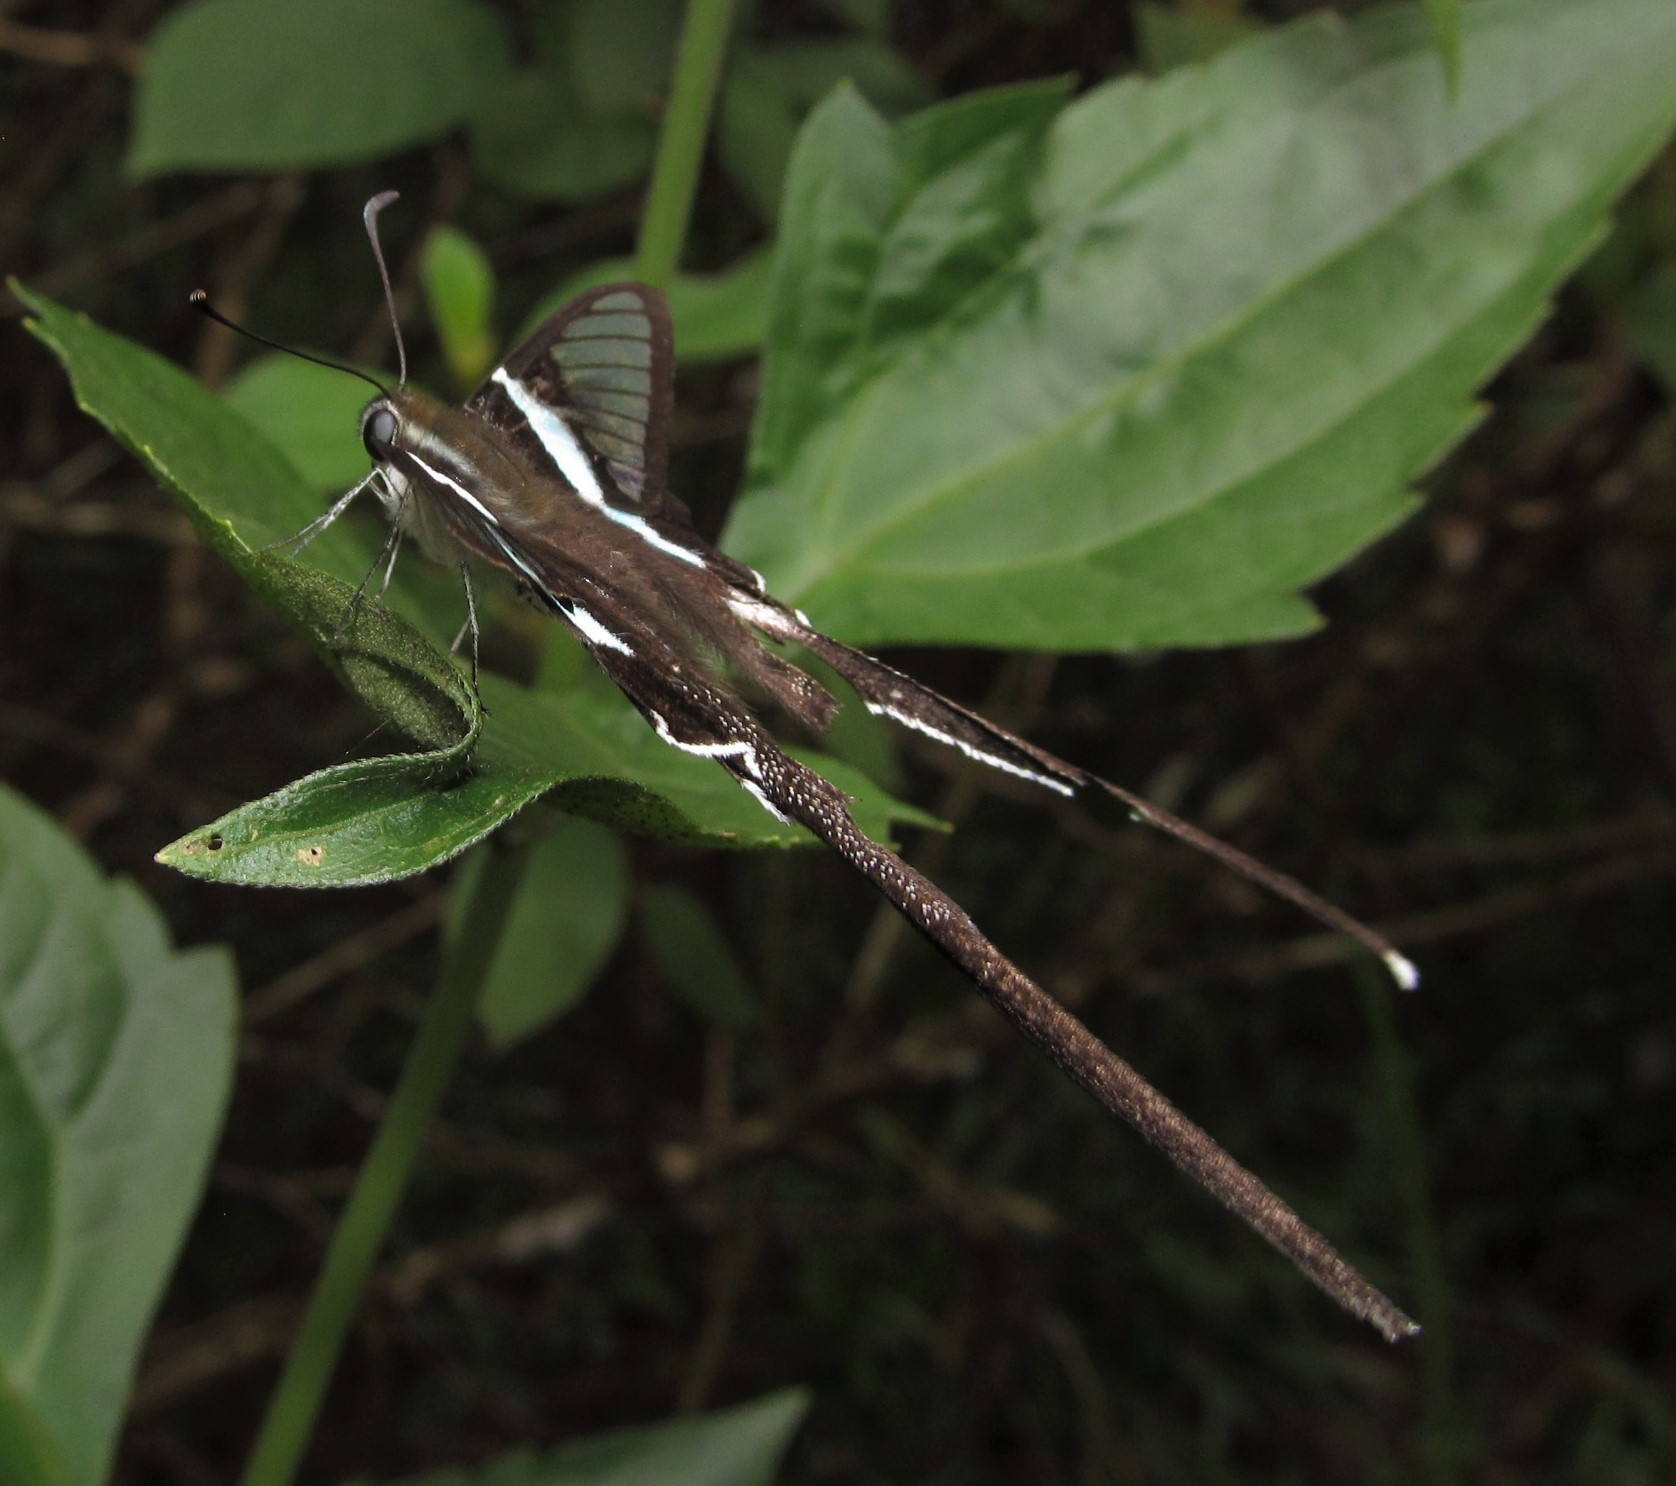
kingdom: Animalia
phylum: Arthropoda
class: Insecta
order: Lepidoptera
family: Papilionidae
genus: Lamproptera
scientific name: Lamproptera meges
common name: Green dragontail
